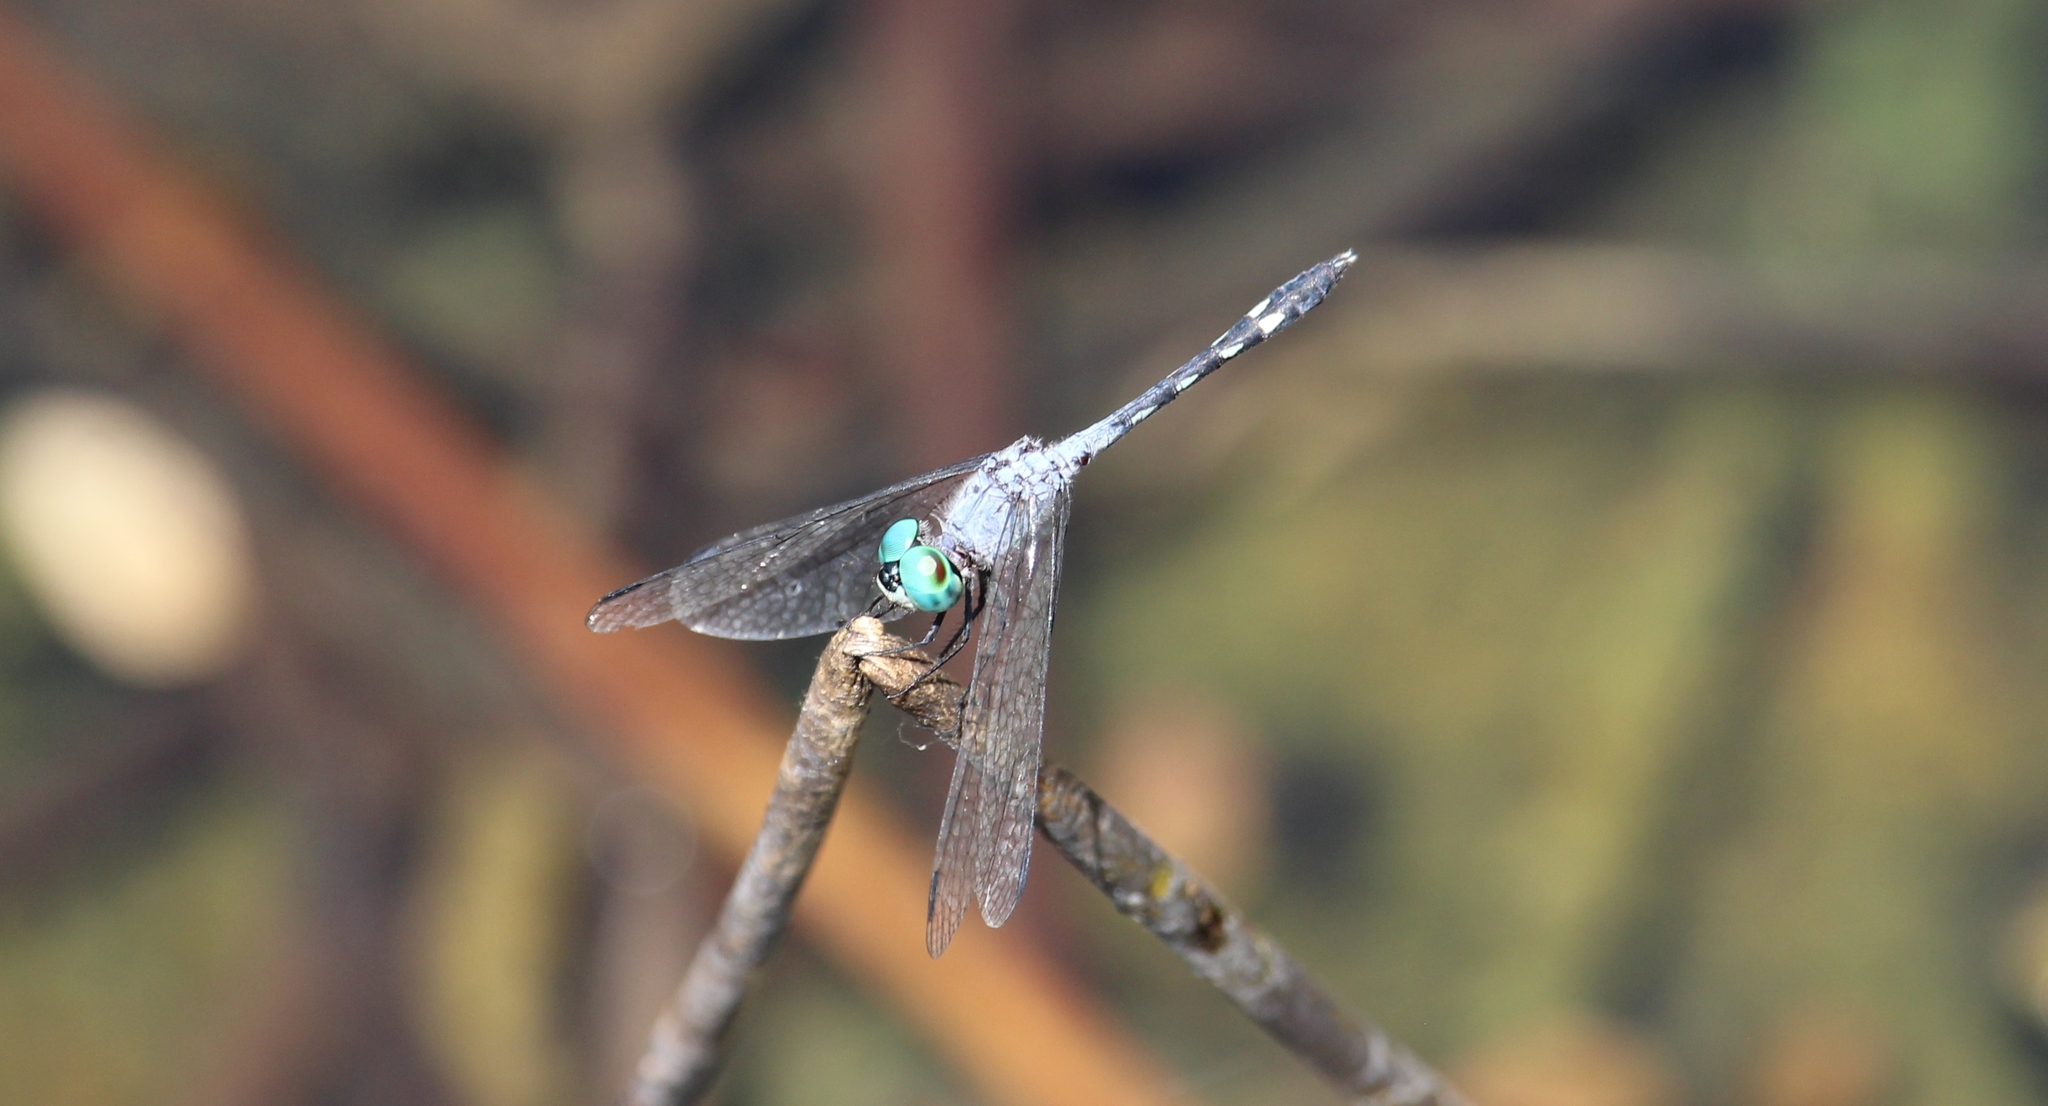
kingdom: Animalia
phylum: Arthropoda
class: Insecta
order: Odonata
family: Libellulidae
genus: Micrathyria
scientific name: Micrathyria debilis
